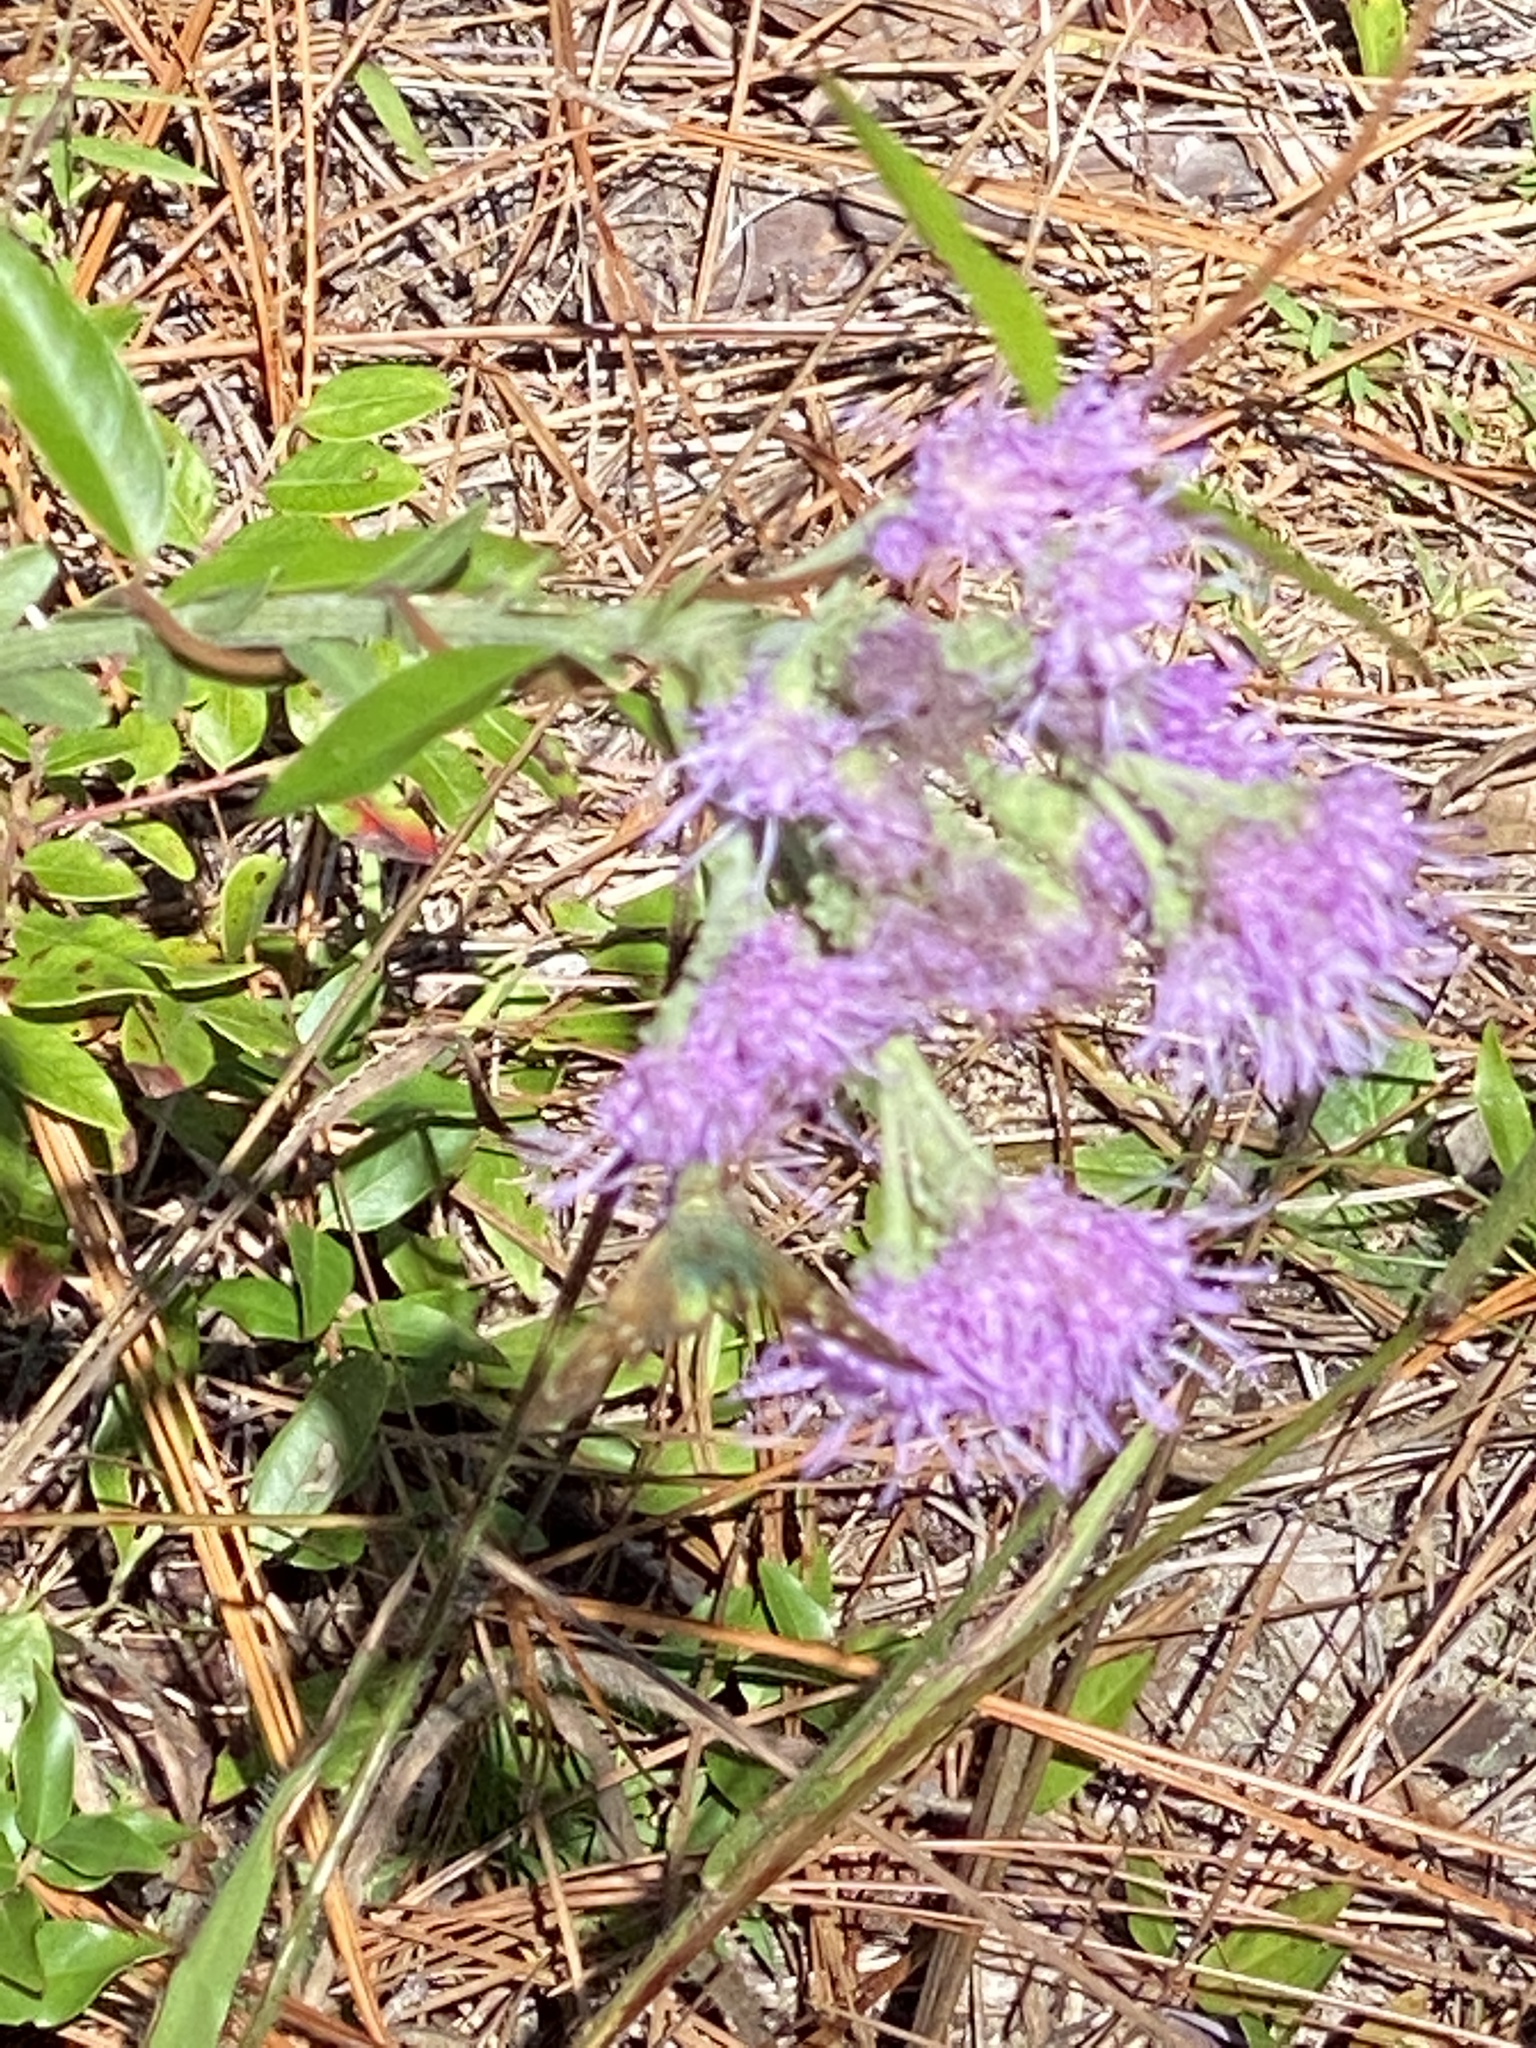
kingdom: Plantae
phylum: Tracheophyta
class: Magnoliopsida
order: Asterales
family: Asteraceae
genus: Carphephorus
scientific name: Carphephorus corymbosus
